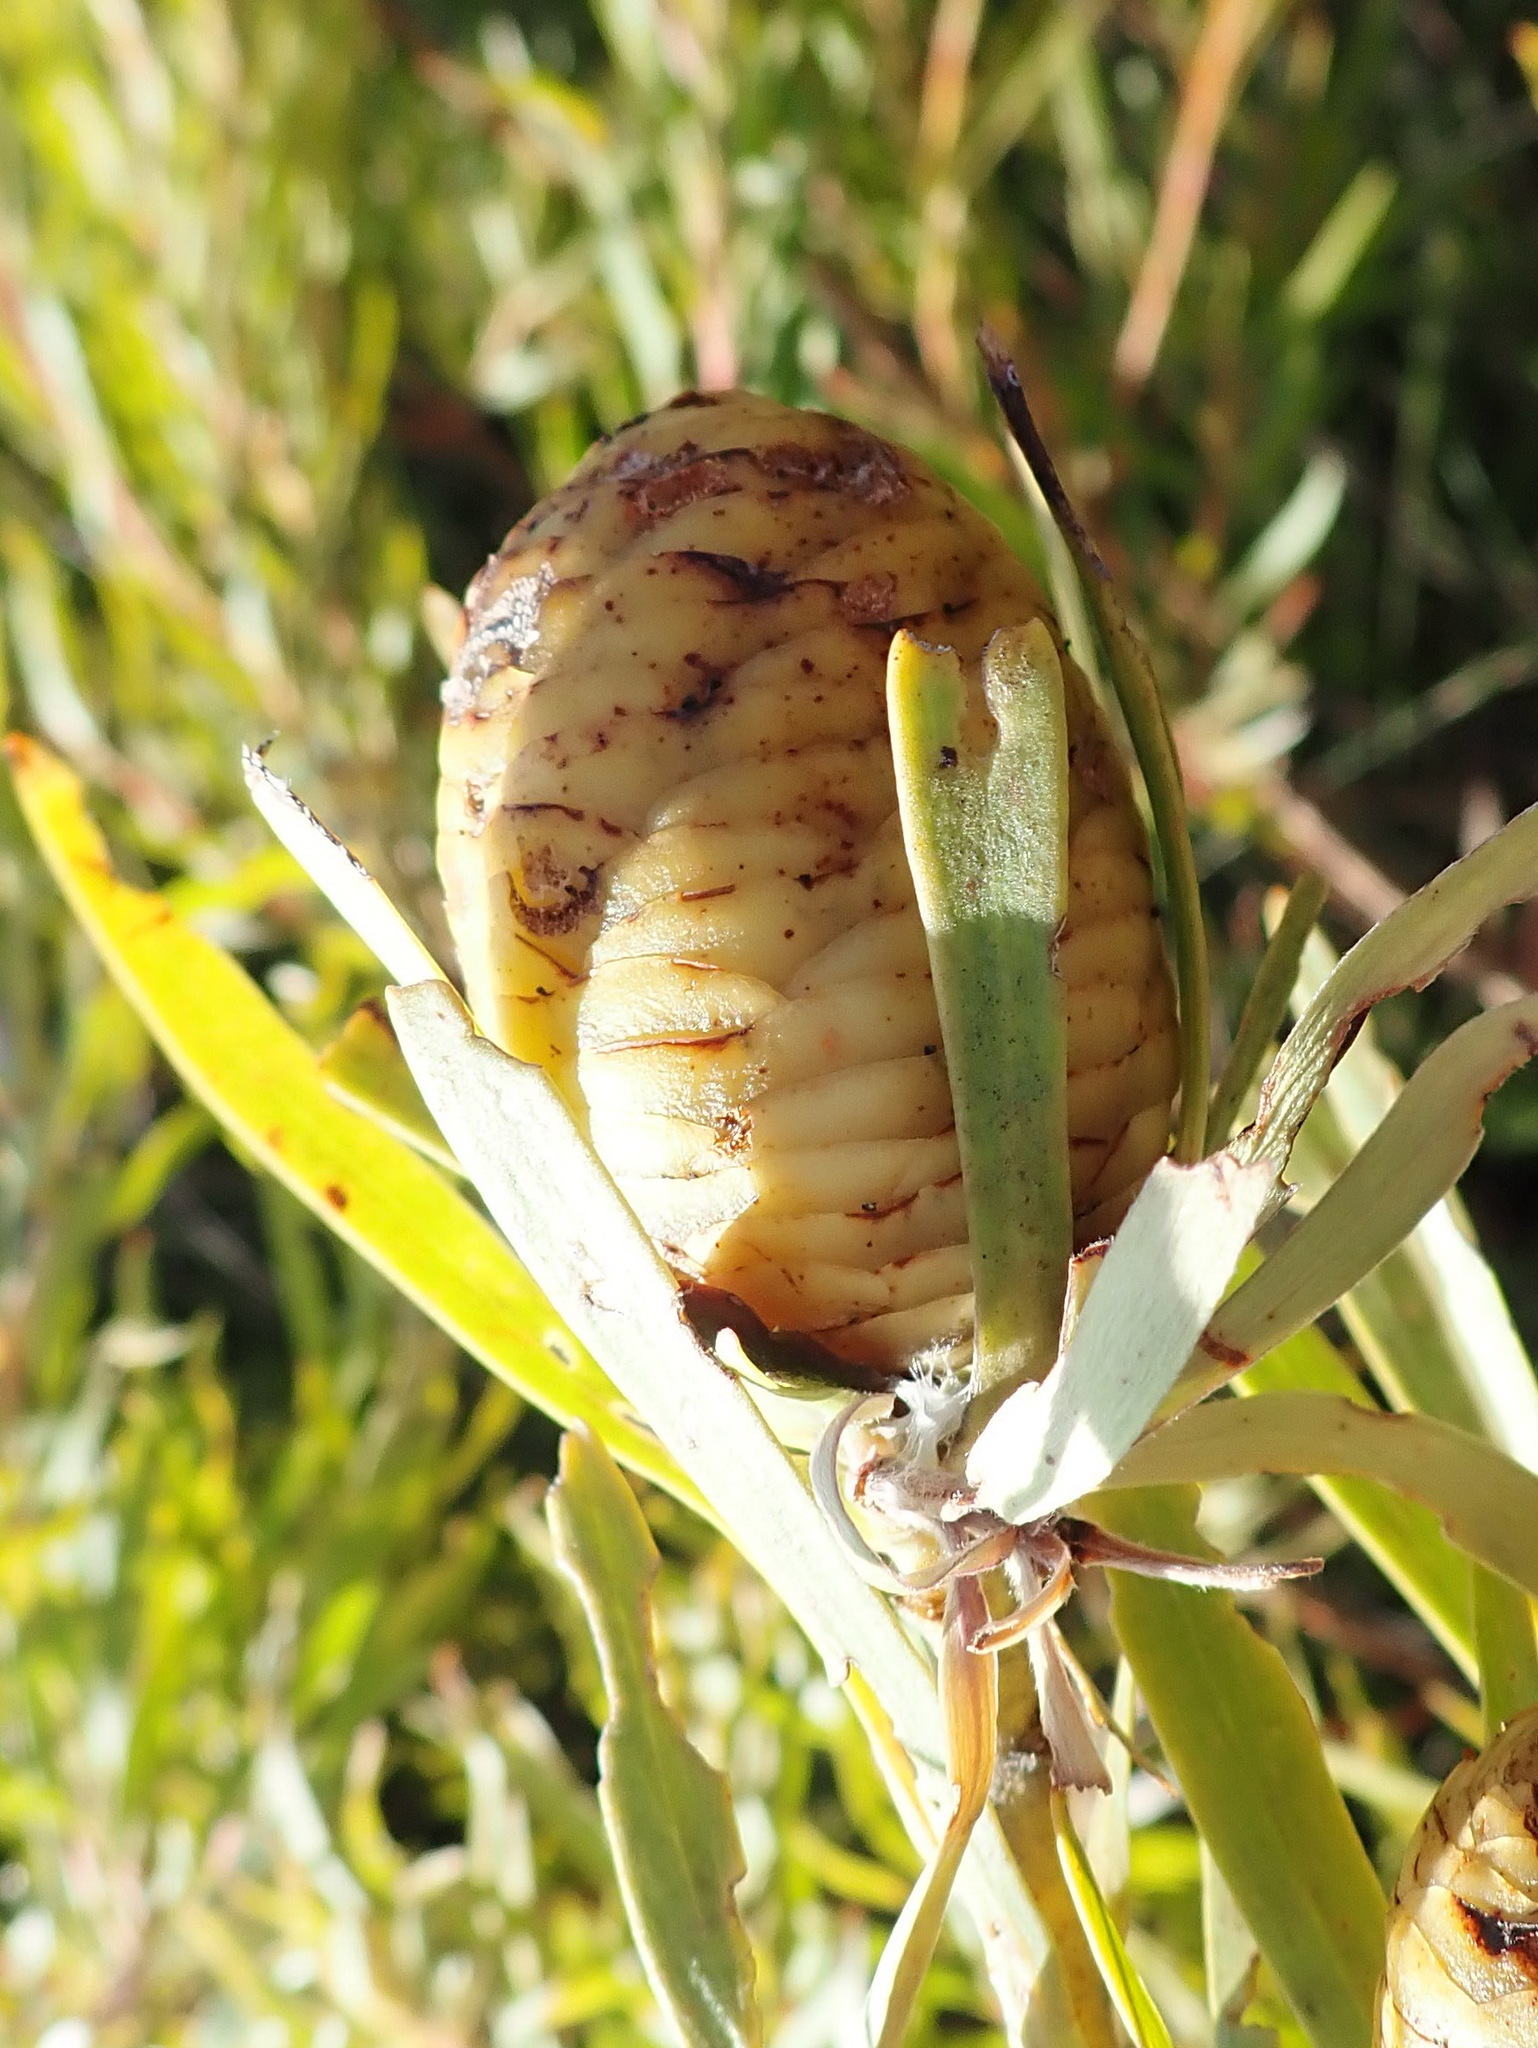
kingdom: Plantae
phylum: Tracheophyta
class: Magnoliopsida
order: Proteales
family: Proteaceae
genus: Leucadendron
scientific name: Leucadendron eucalyptifolium
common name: Gum-leaved conebush
